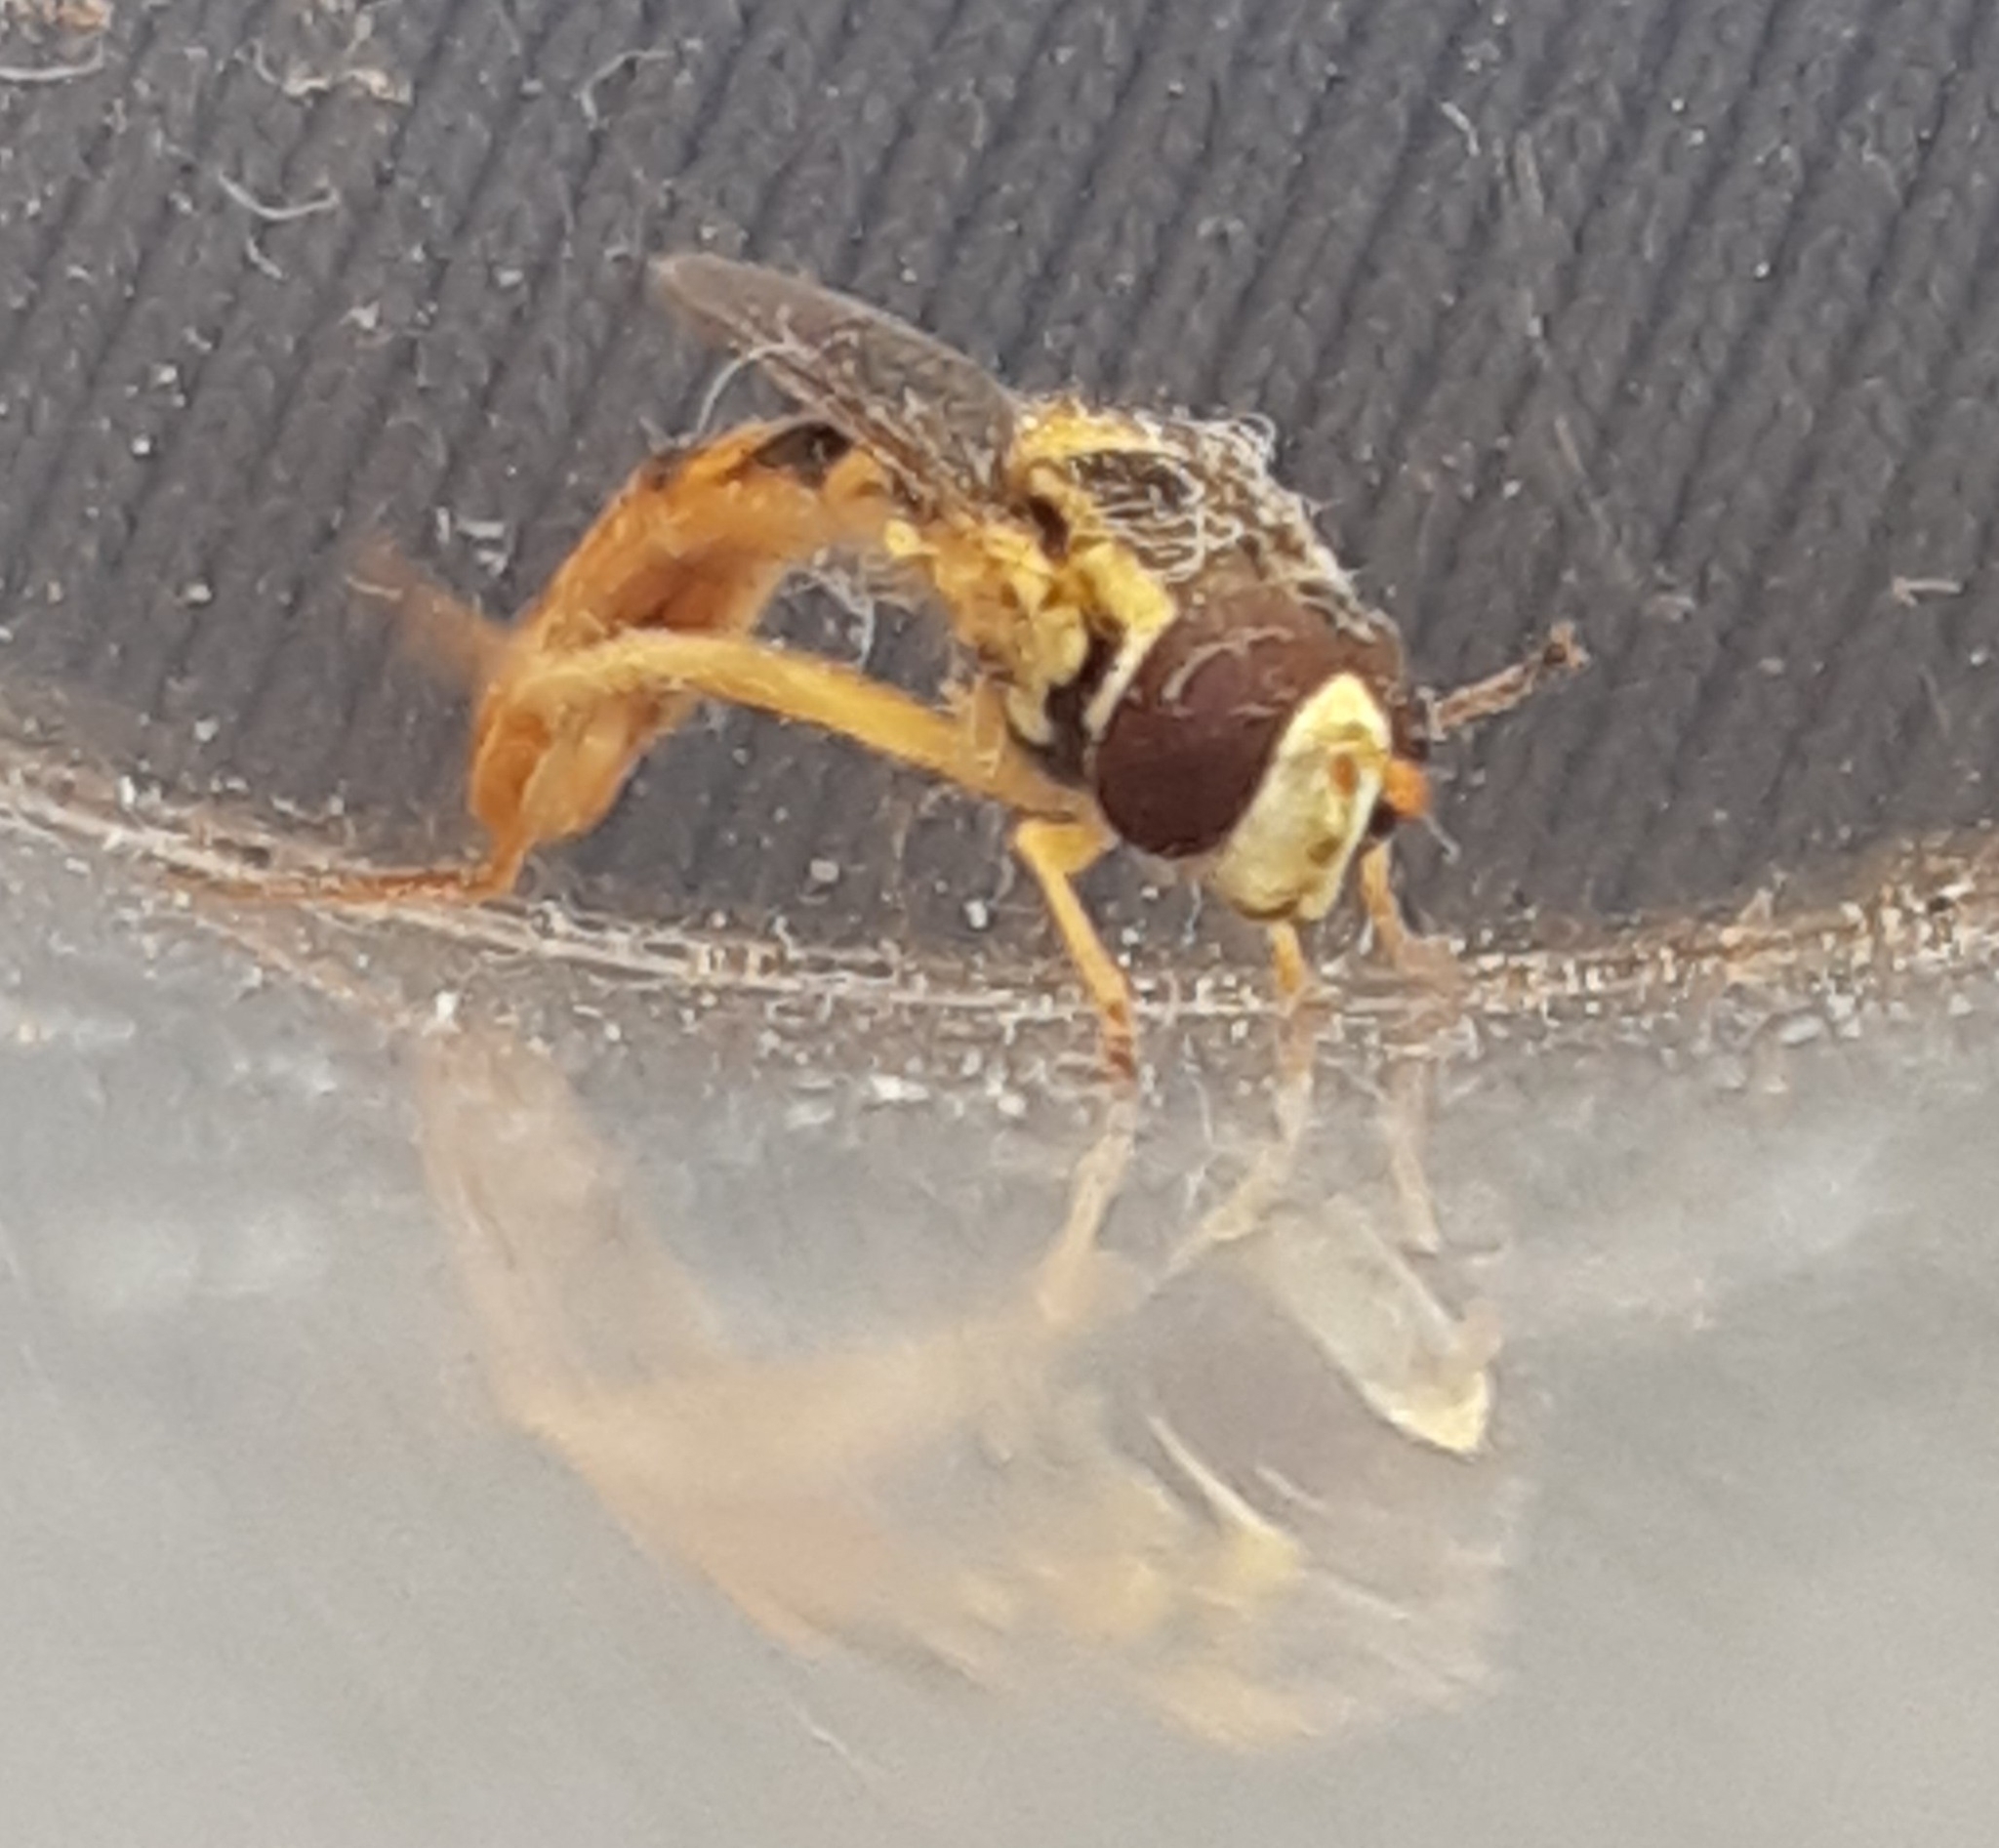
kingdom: Animalia
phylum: Arthropoda
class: Insecta
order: Diptera
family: Syrphidae
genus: Sphaerophoria
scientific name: Sphaerophoria scripta
